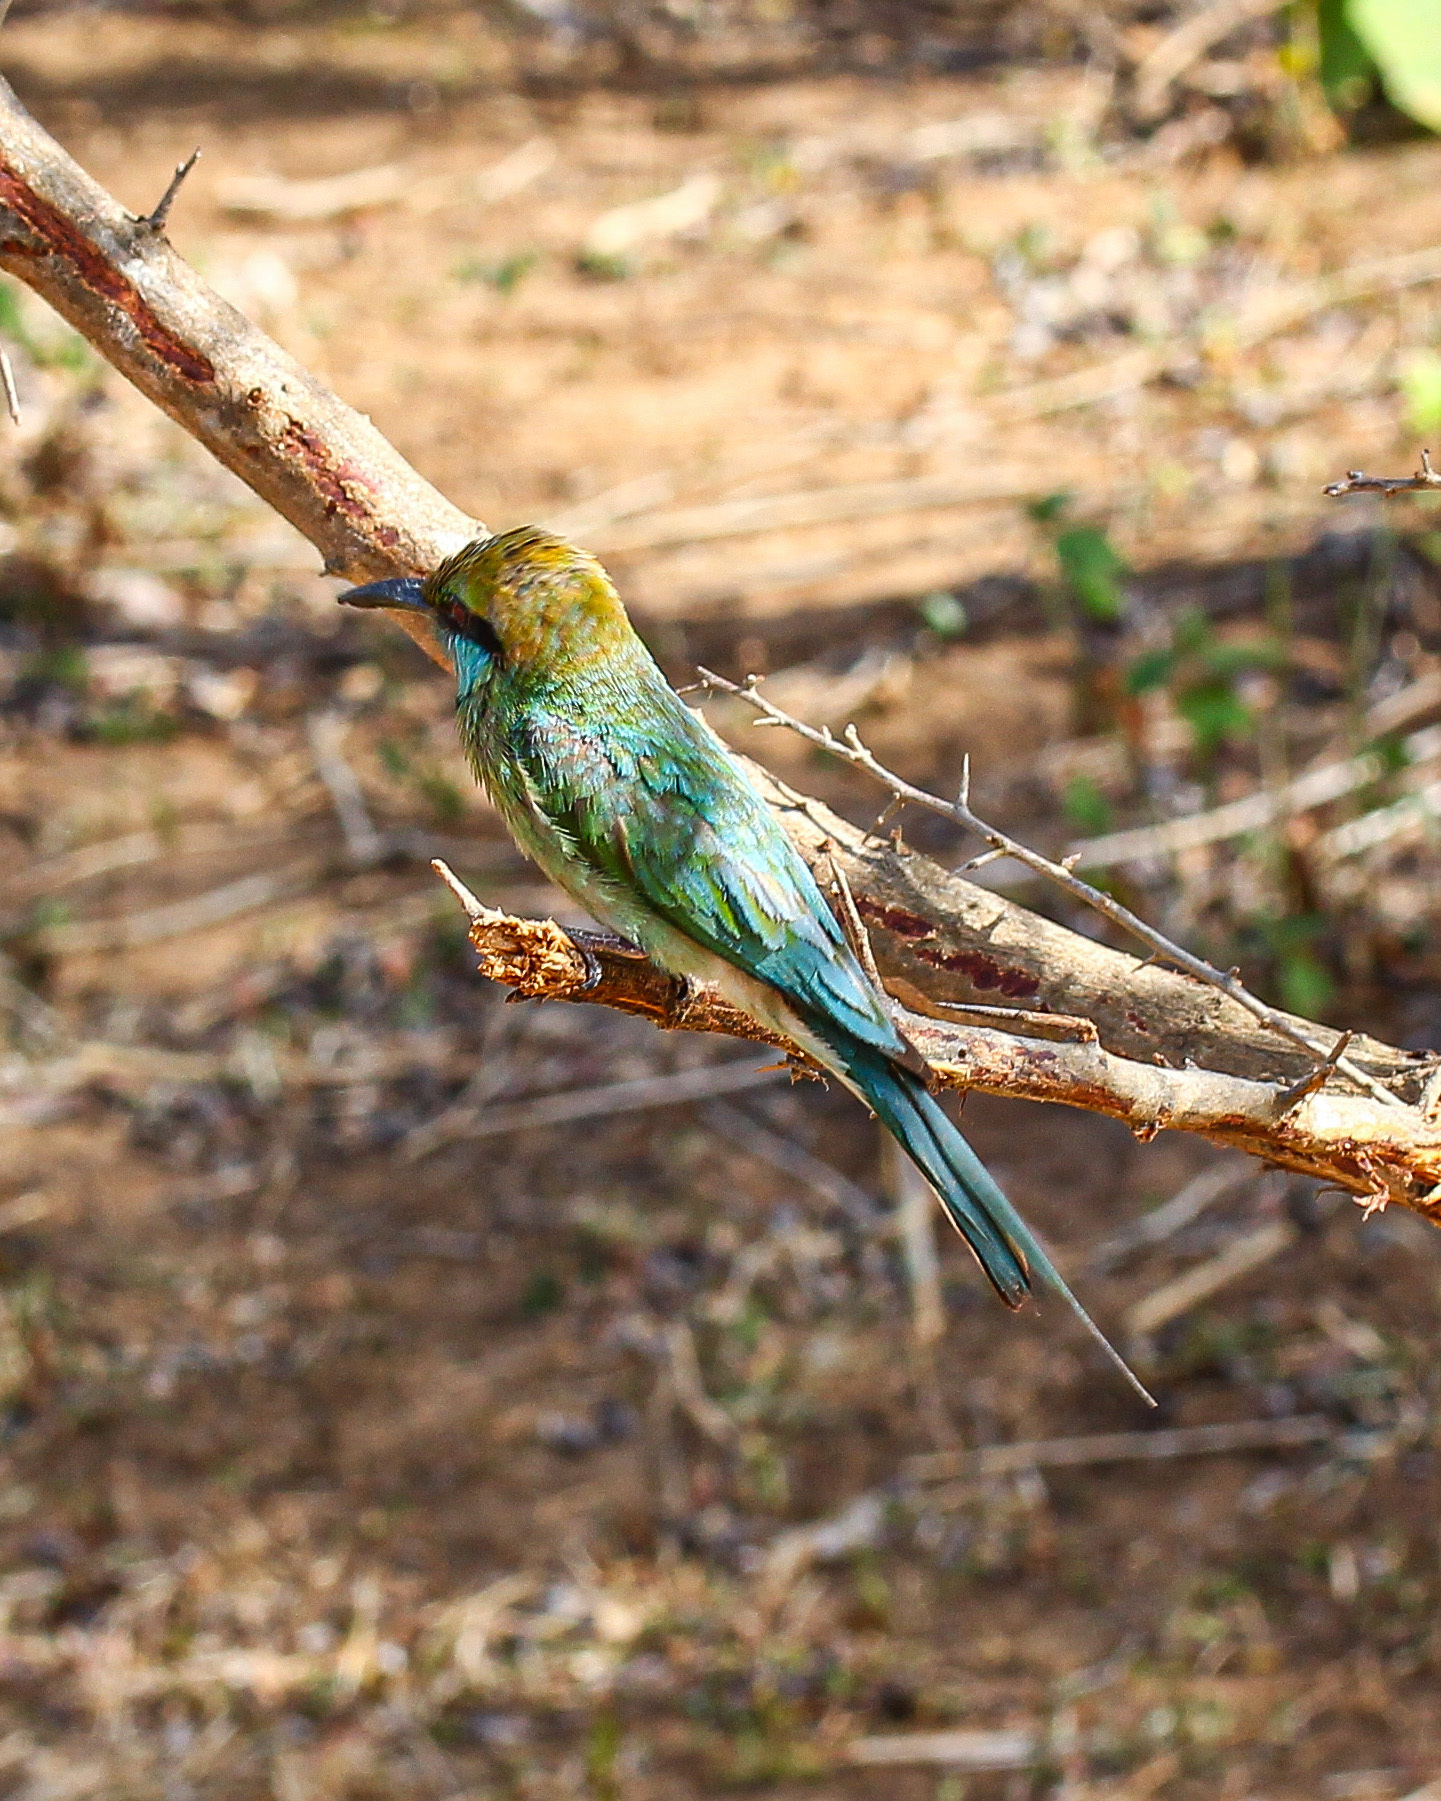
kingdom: Animalia
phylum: Chordata
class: Aves
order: Coraciiformes
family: Meropidae
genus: Merops
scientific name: Merops orientalis
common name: Green bee-eater
